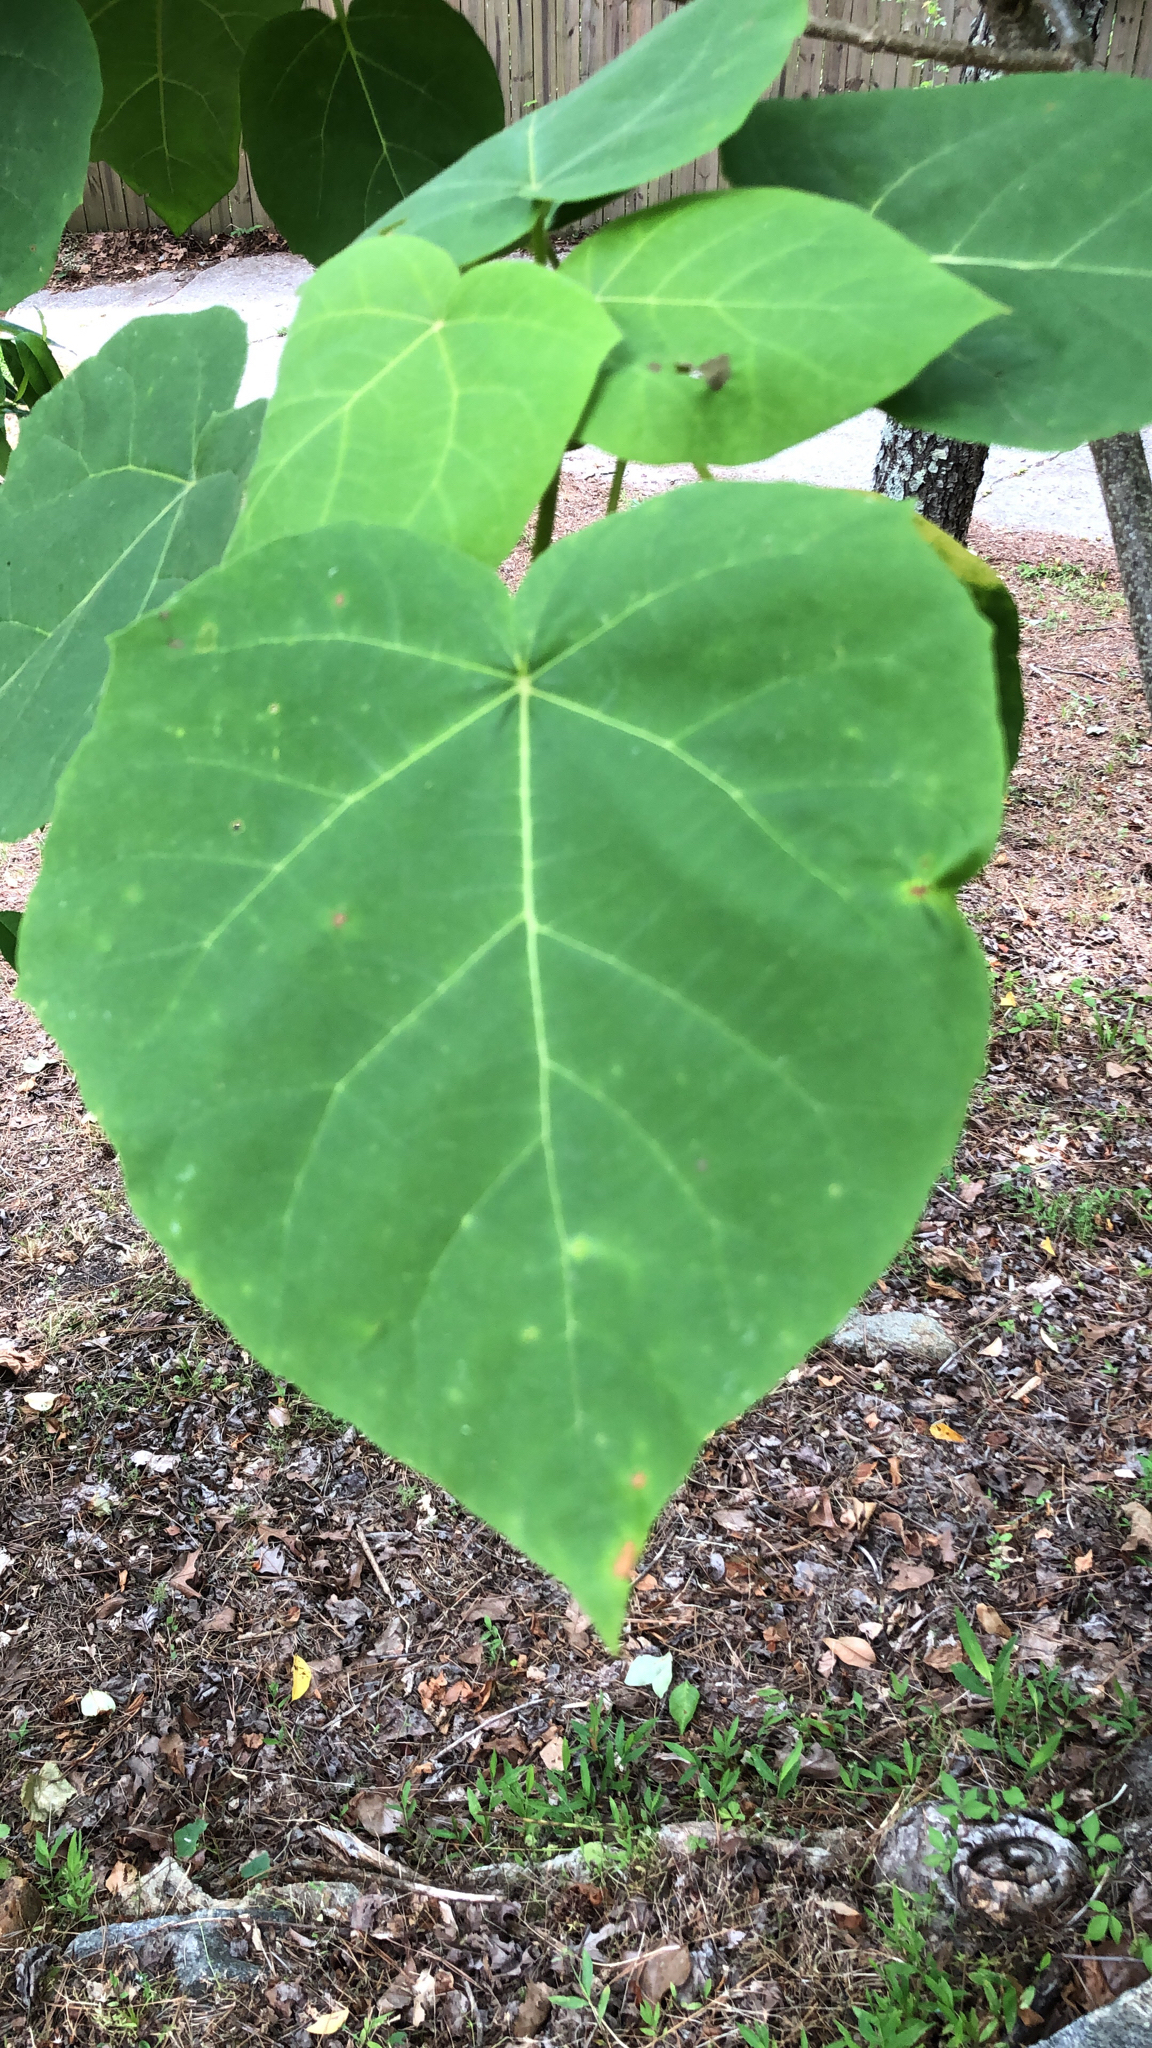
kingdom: Plantae
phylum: Tracheophyta
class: Magnoliopsida
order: Lamiales
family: Paulowniaceae
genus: Paulownia
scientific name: Paulownia tomentosa
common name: Foxglove-tree
